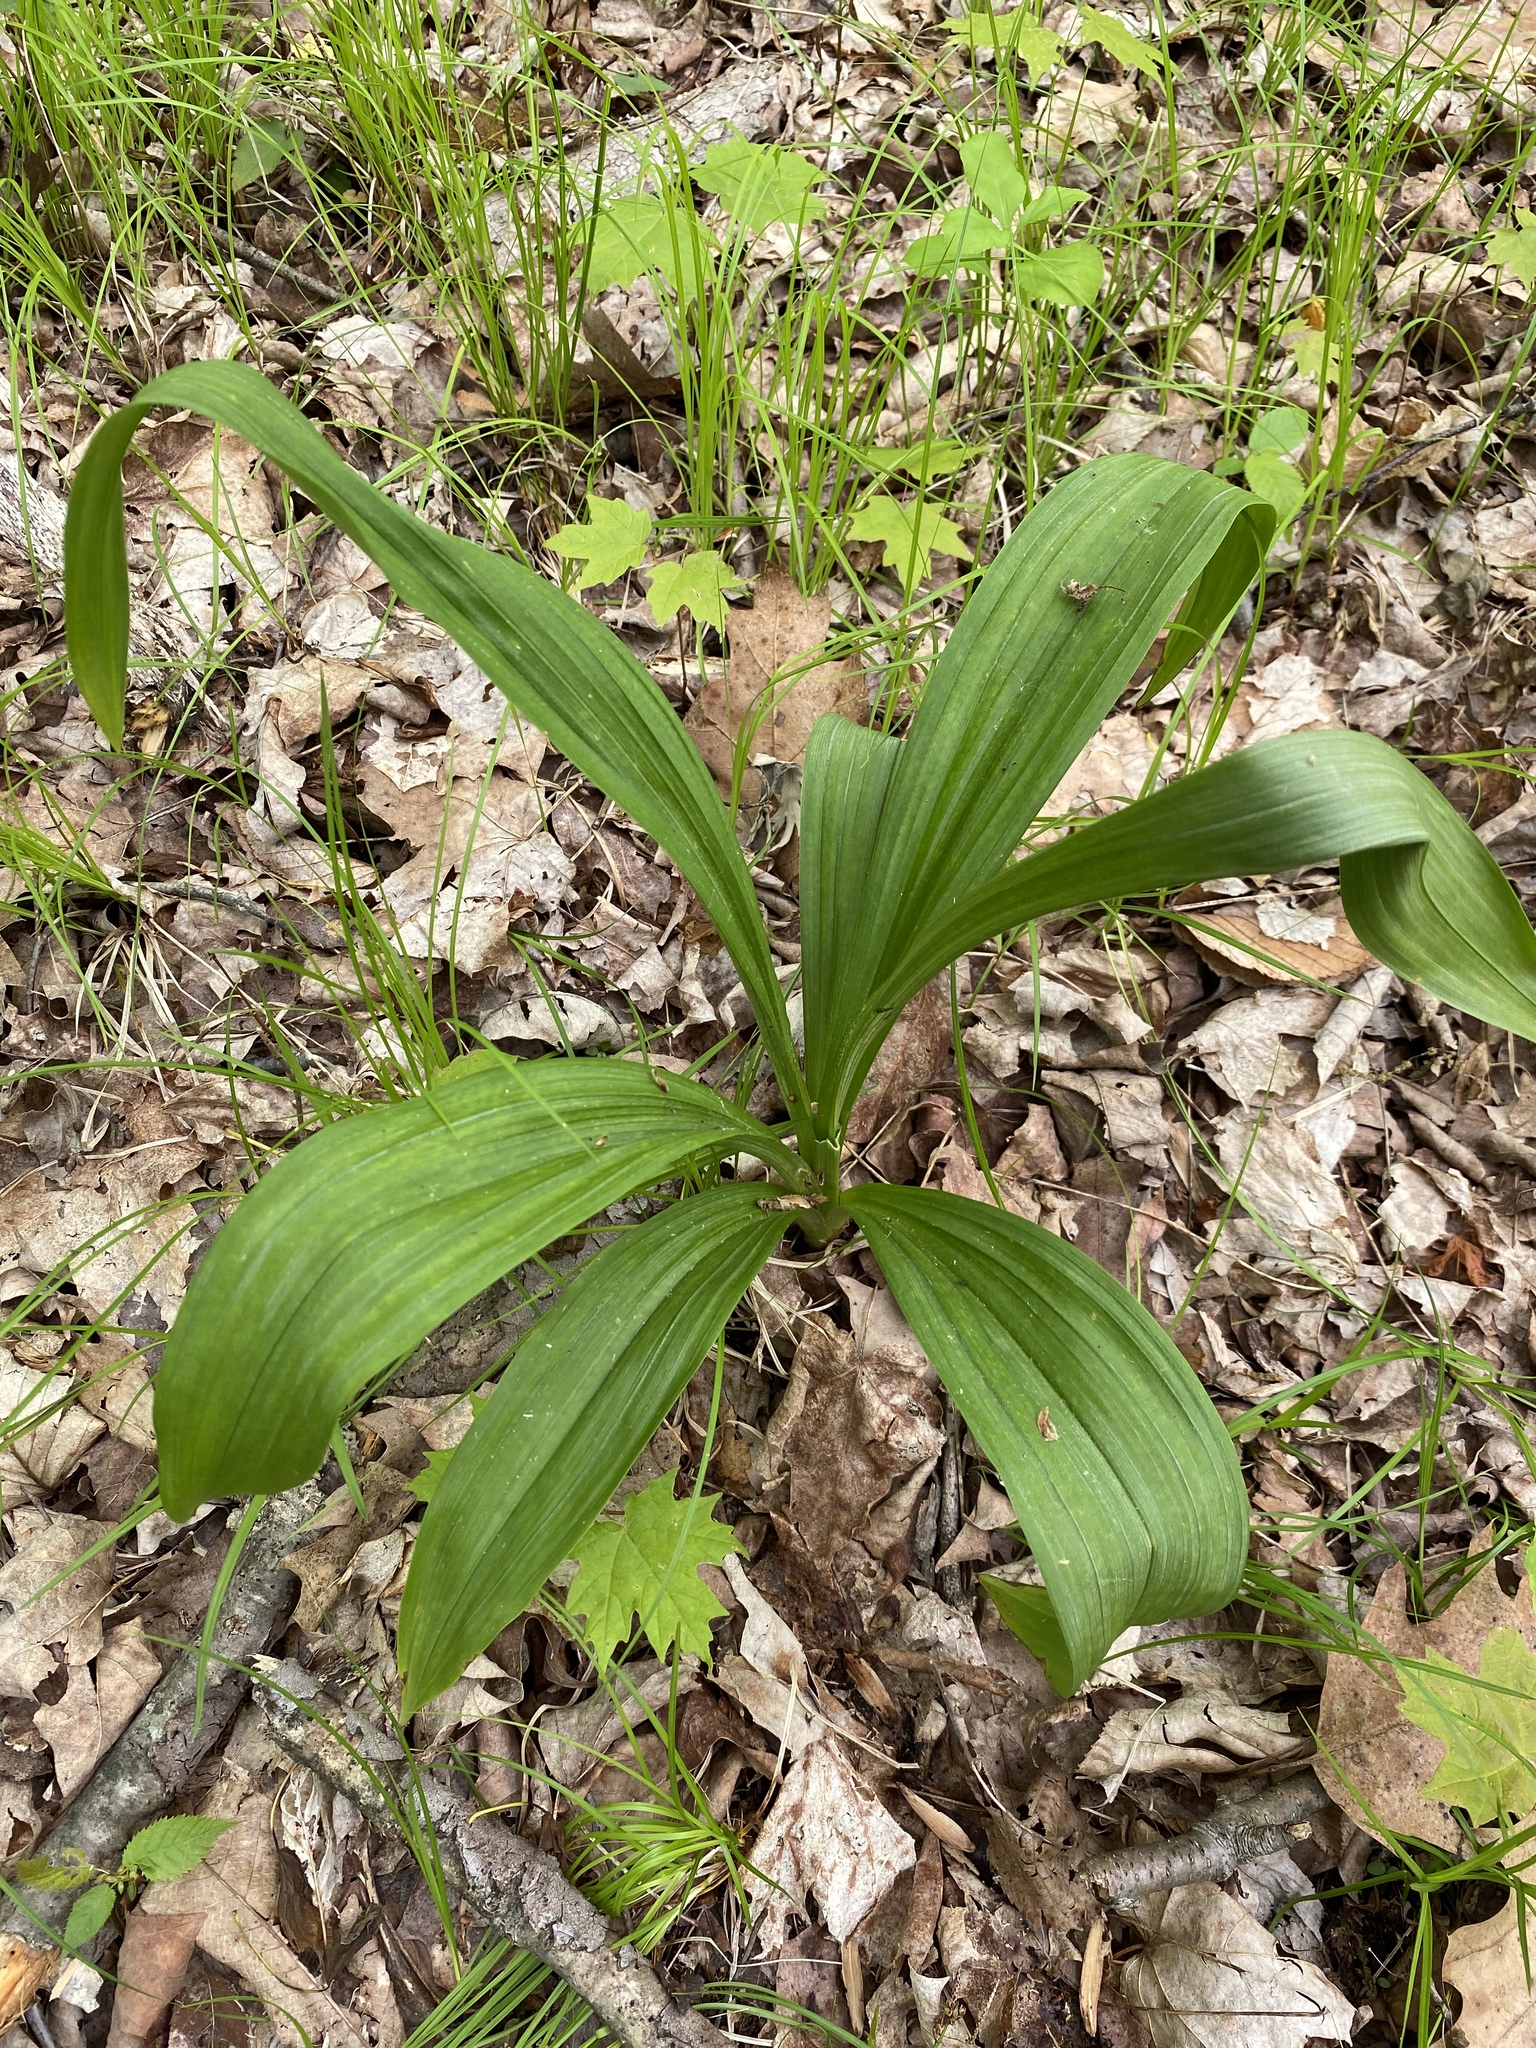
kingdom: Plantae
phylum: Tracheophyta
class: Liliopsida
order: Liliales
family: Melanthiaceae
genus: Veratrum
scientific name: Veratrum hybridum
